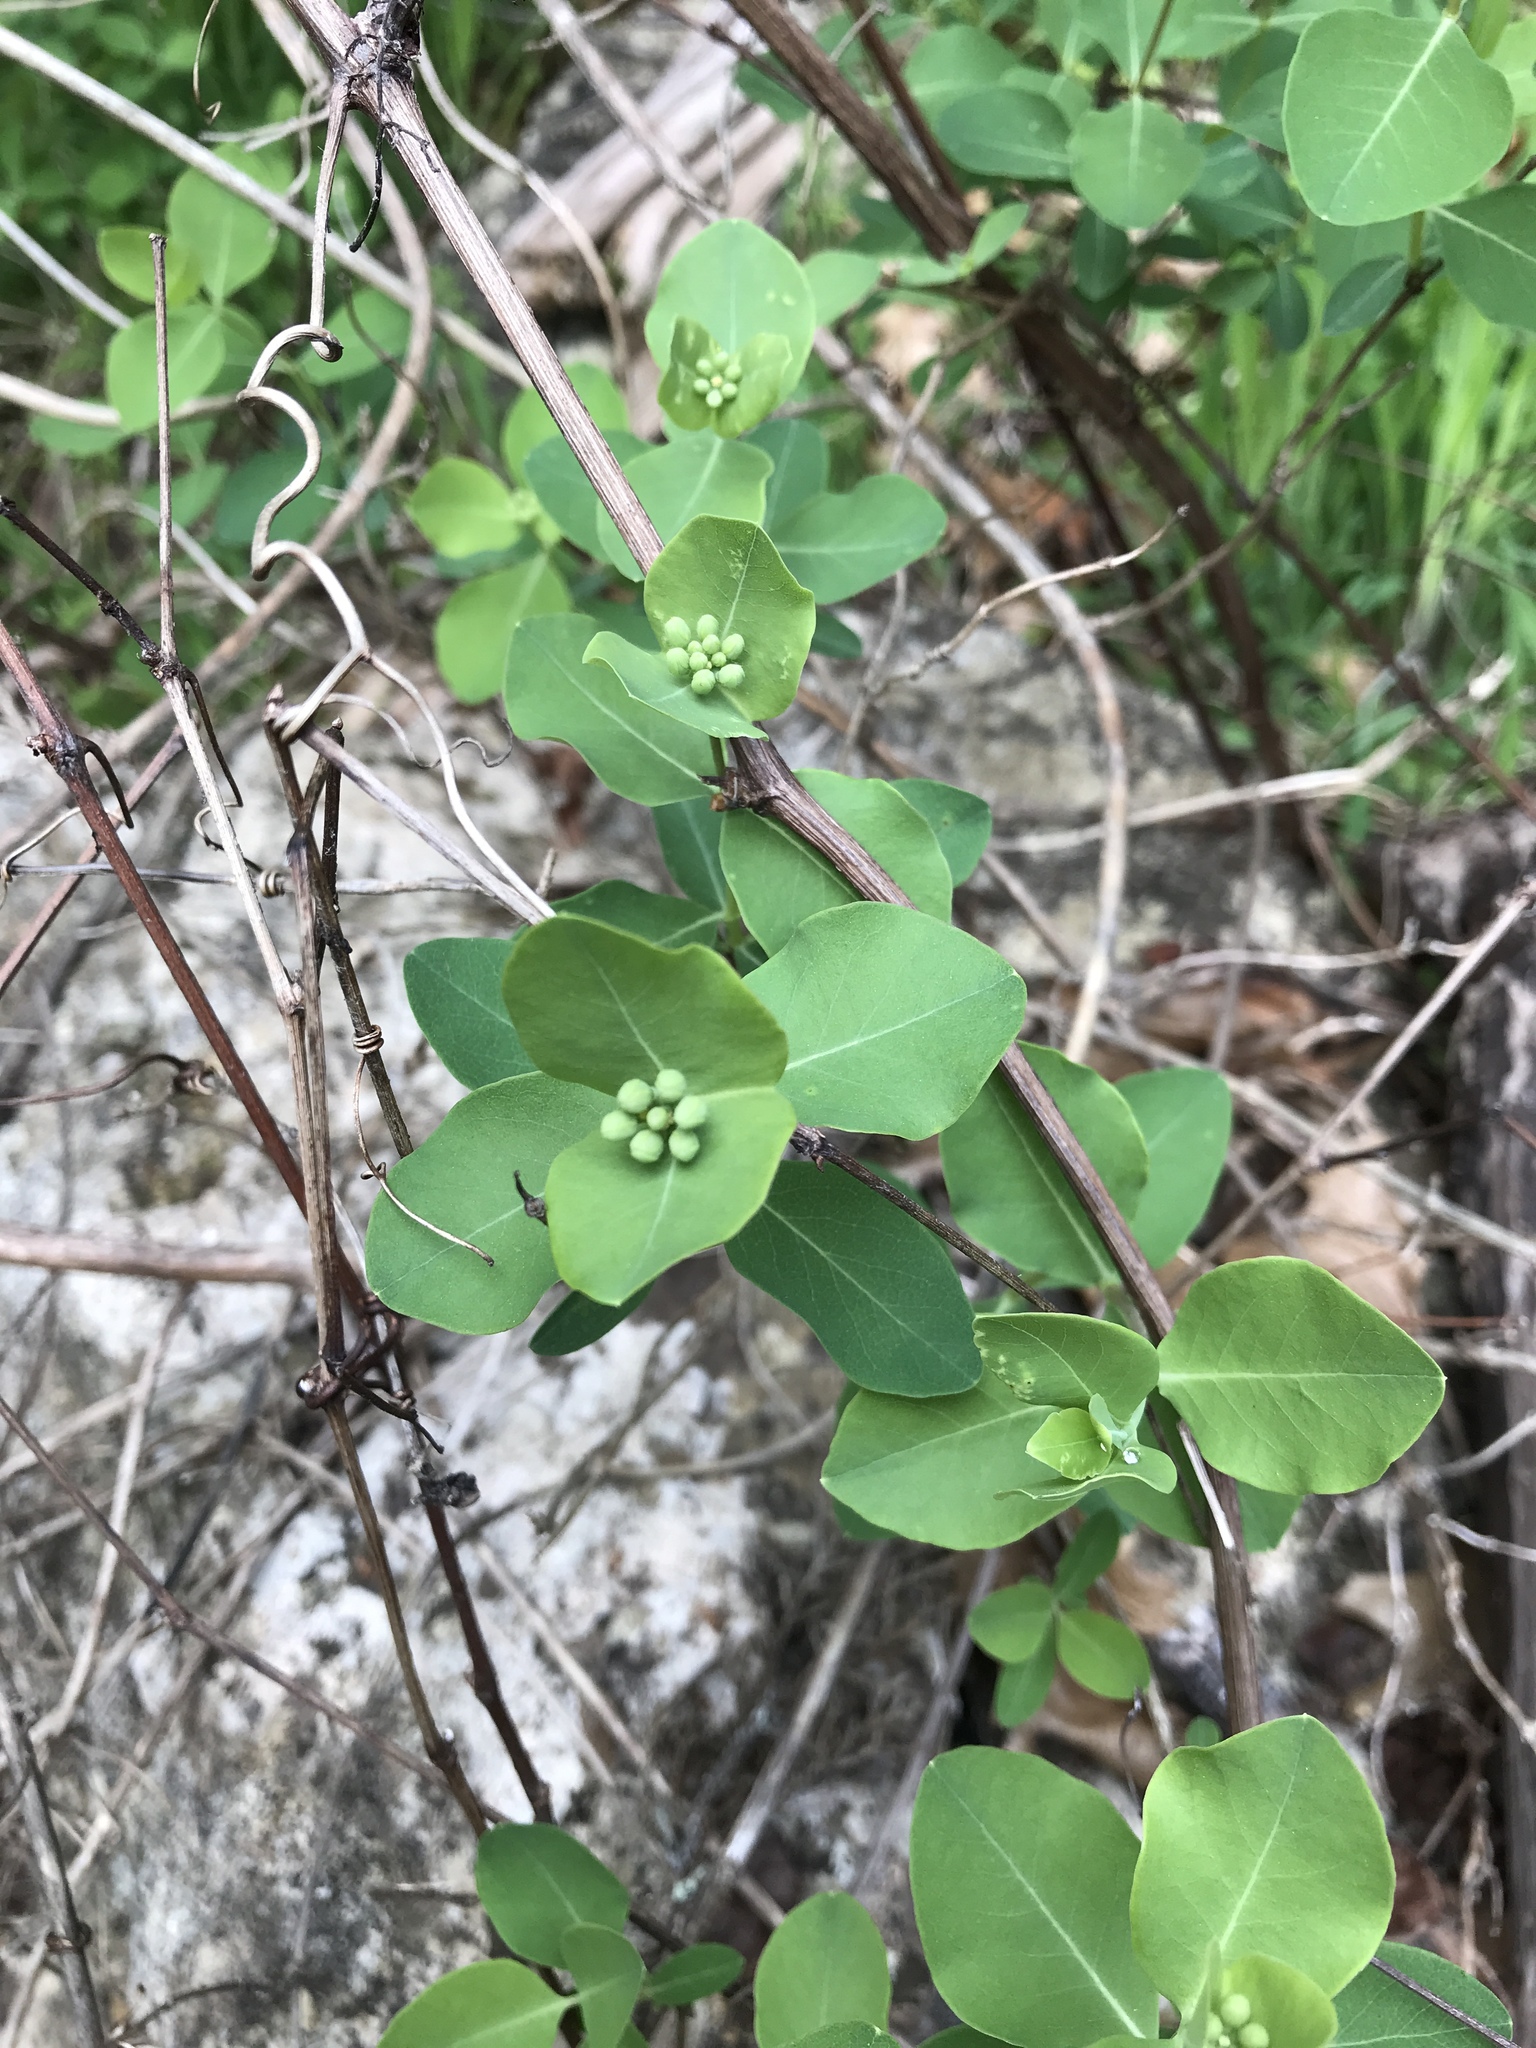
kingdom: Plantae
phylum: Tracheophyta
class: Magnoliopsida
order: Dipsacales
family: Caprifoliaceae
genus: Lonicera
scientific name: Lonicera albiflora
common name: White honeysuckle
